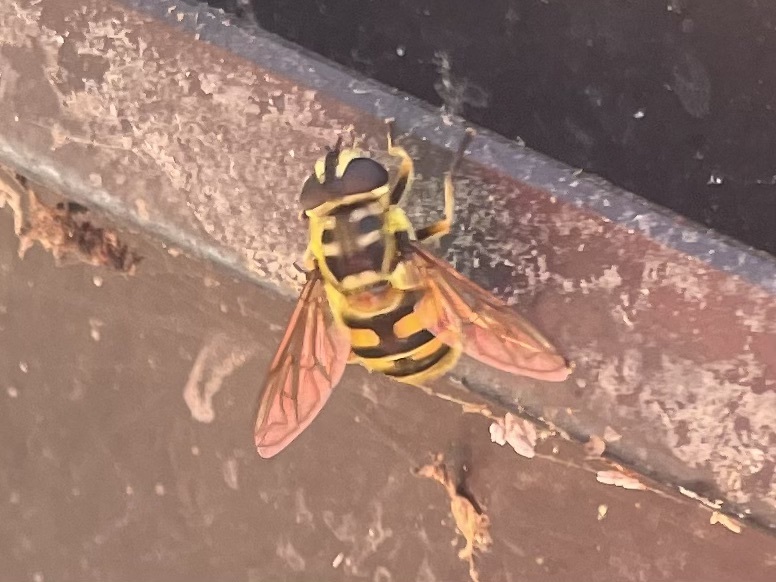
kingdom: Animalia
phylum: Arthropoda
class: Insecta
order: Diptera
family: Syrphidae
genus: Myathropa
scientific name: Myathropa florea
